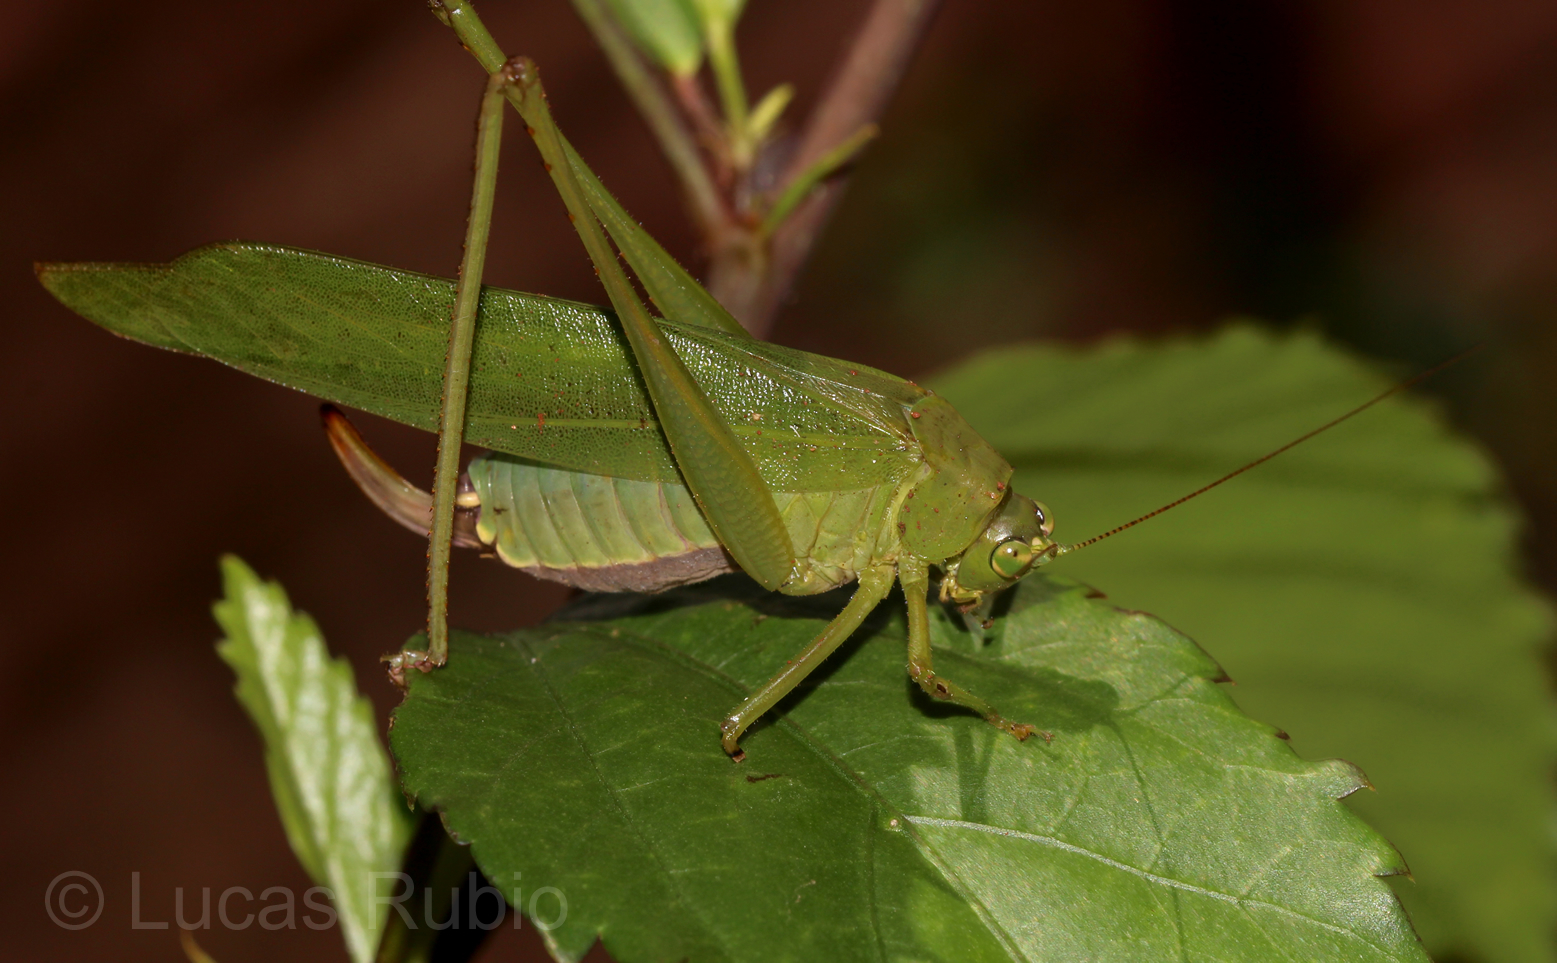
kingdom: Animalia
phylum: Arthropoda
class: Insecta
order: Orthoptera
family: Tettigoniidae
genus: Ceraia
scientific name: Ceraia cornutoides
